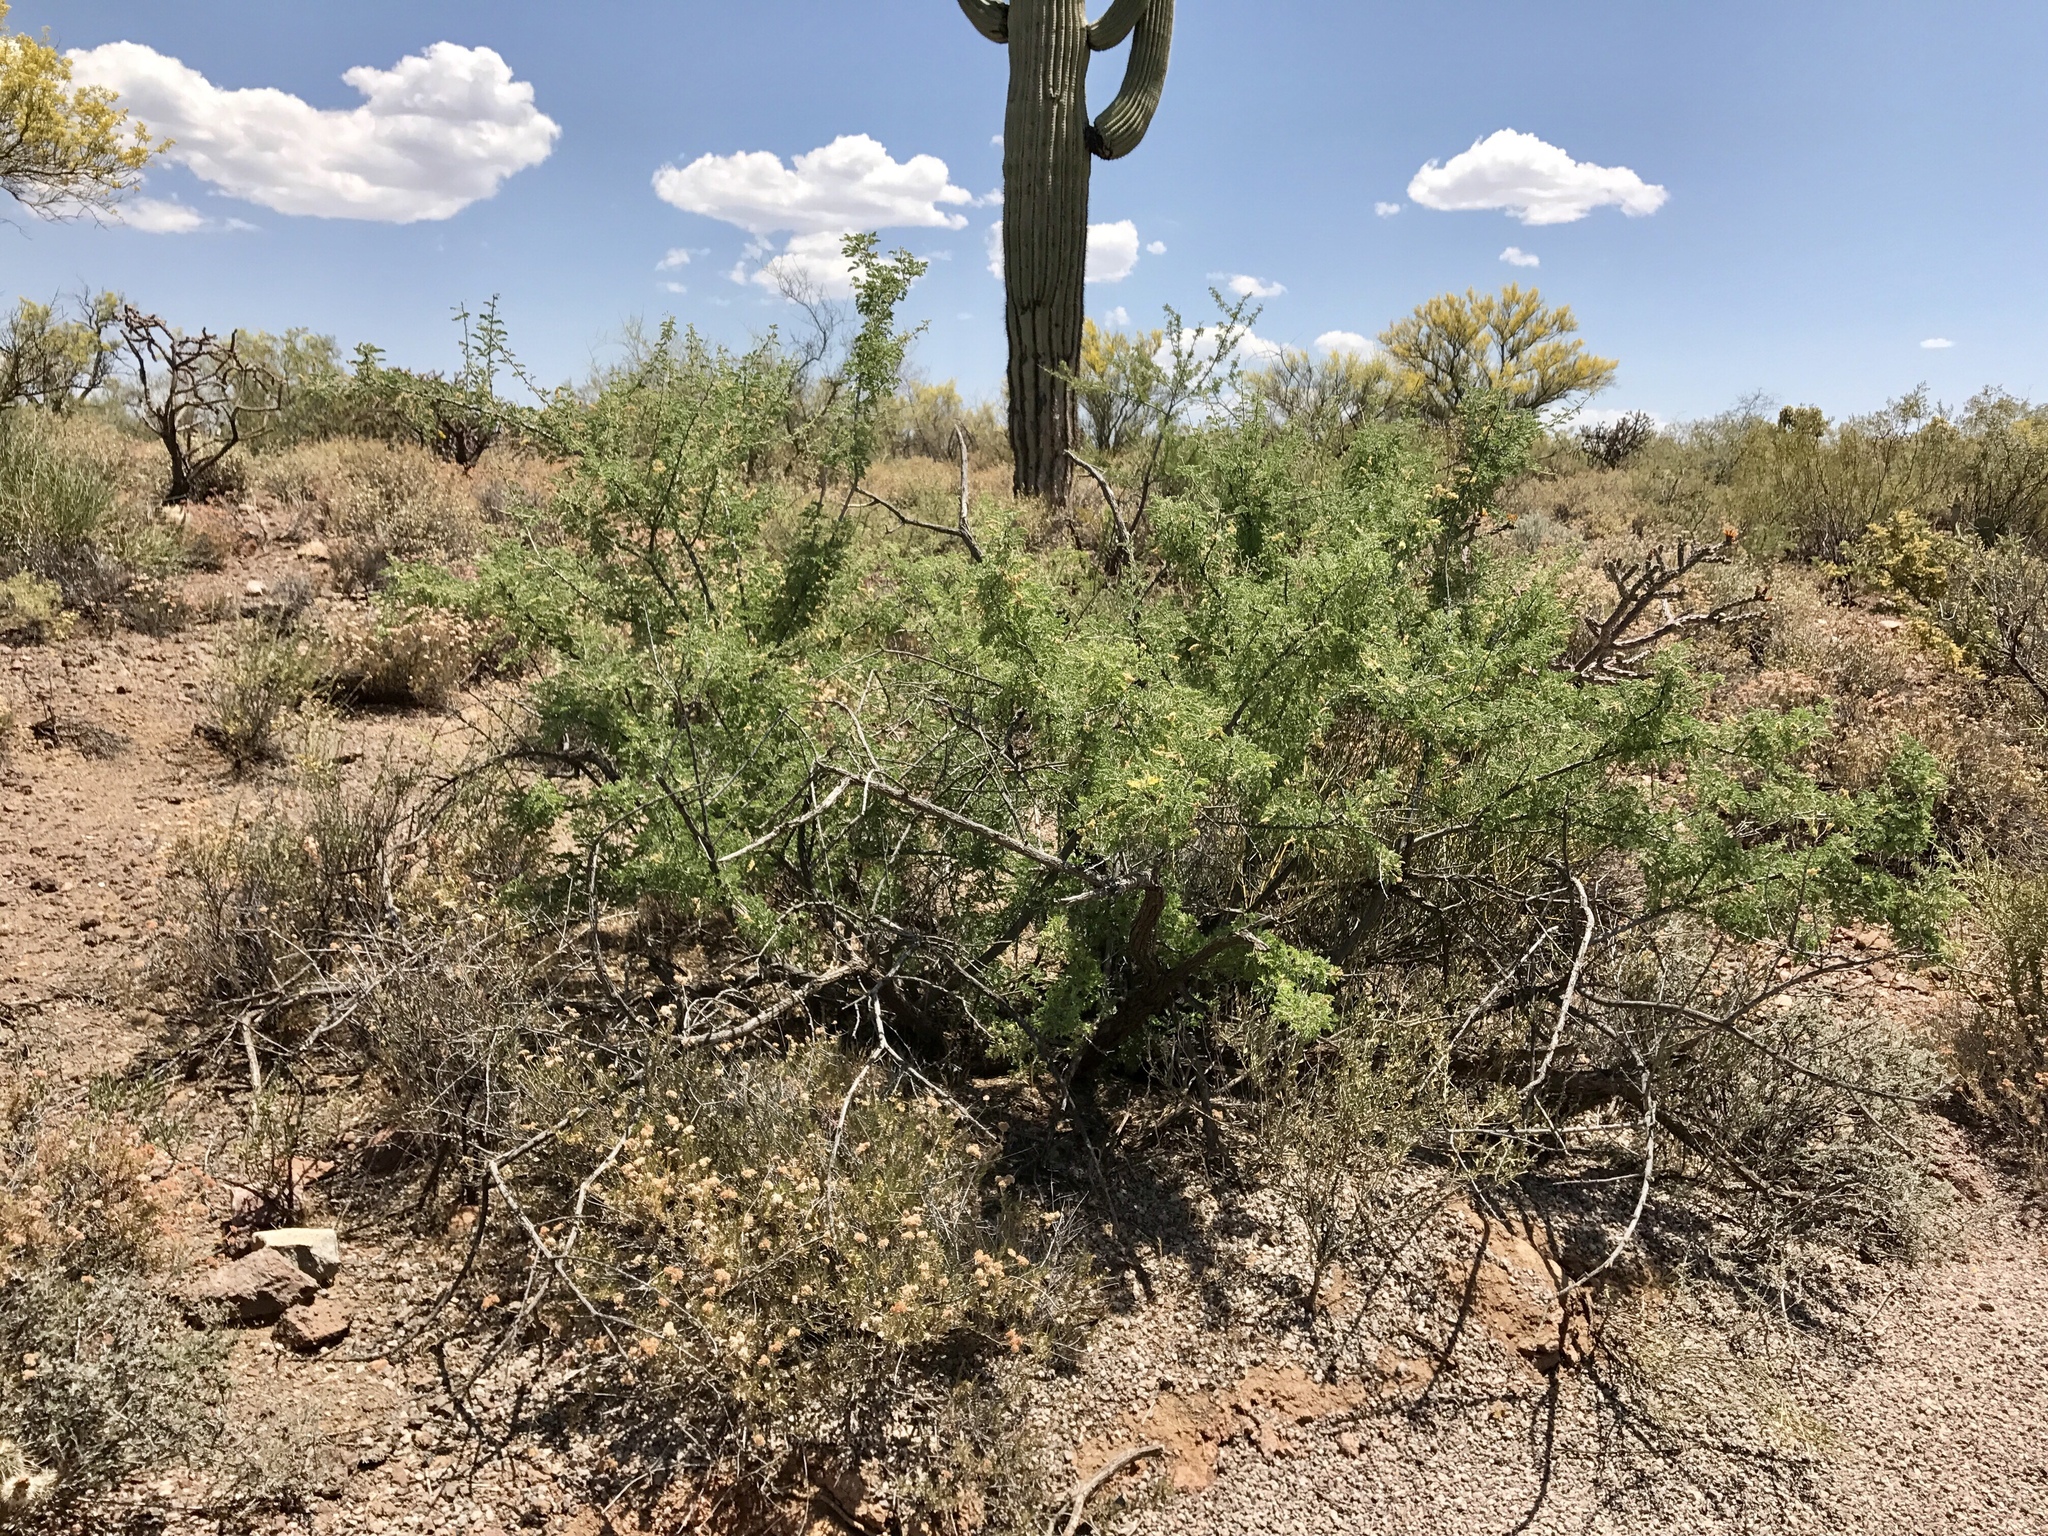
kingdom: Plantae
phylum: Tracheophyta
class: Magnoliopsida
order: Fabales
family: Fabaceae
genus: Senegalia
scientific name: Senegalia greggii
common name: Texas-mimosa
